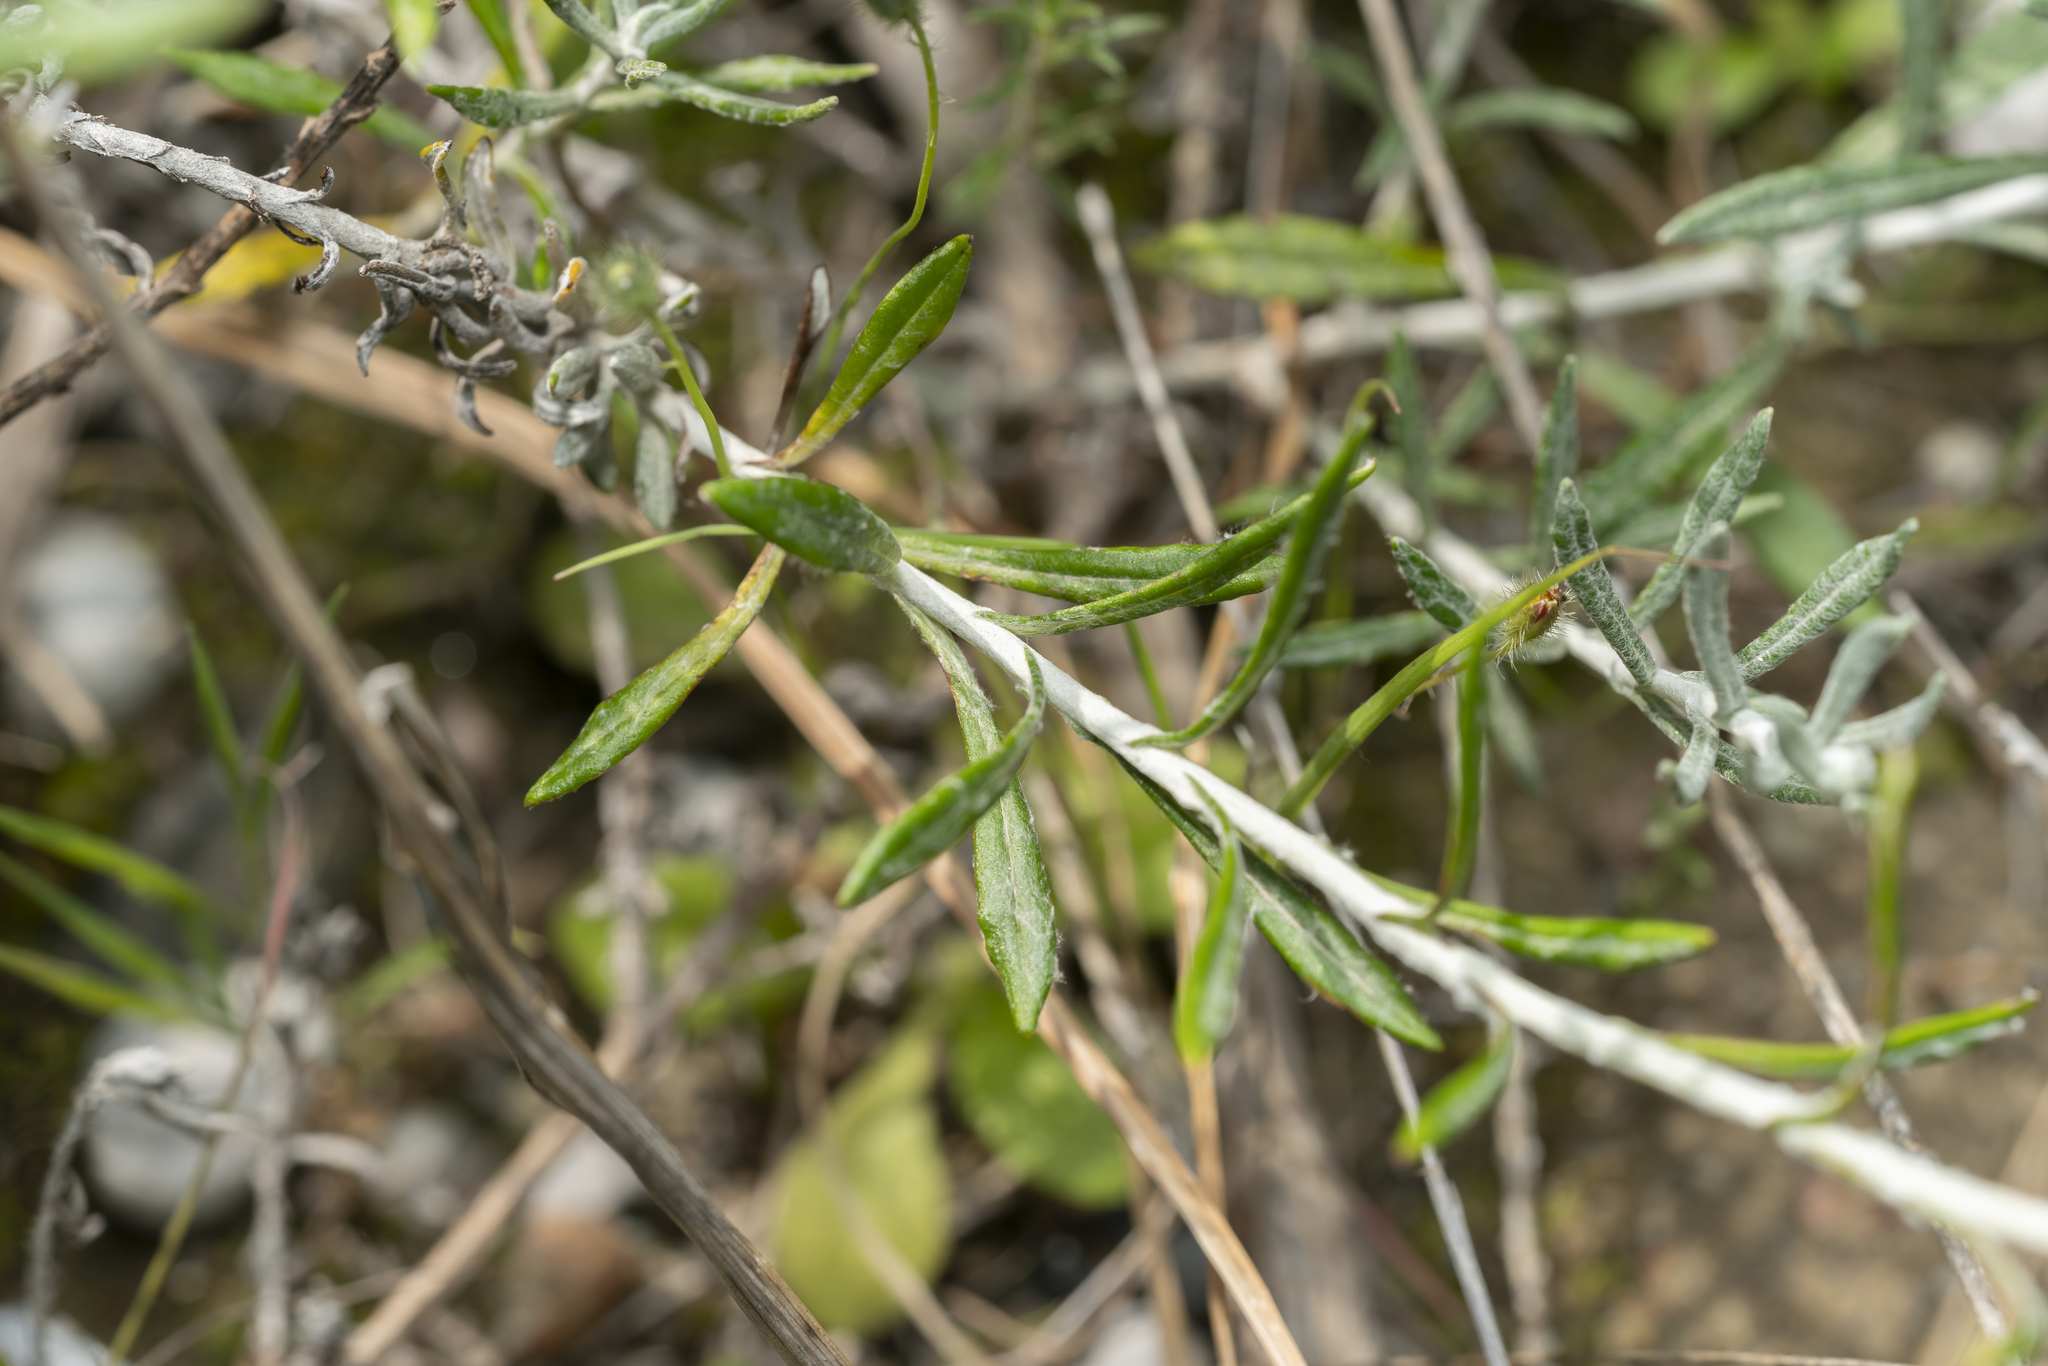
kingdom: Plantae
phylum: Tracheophyta
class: Magnoliopsida
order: Asterales
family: Asteraceae
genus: Helichrysum
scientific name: Helichrysum stoechas
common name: Goldilocks
